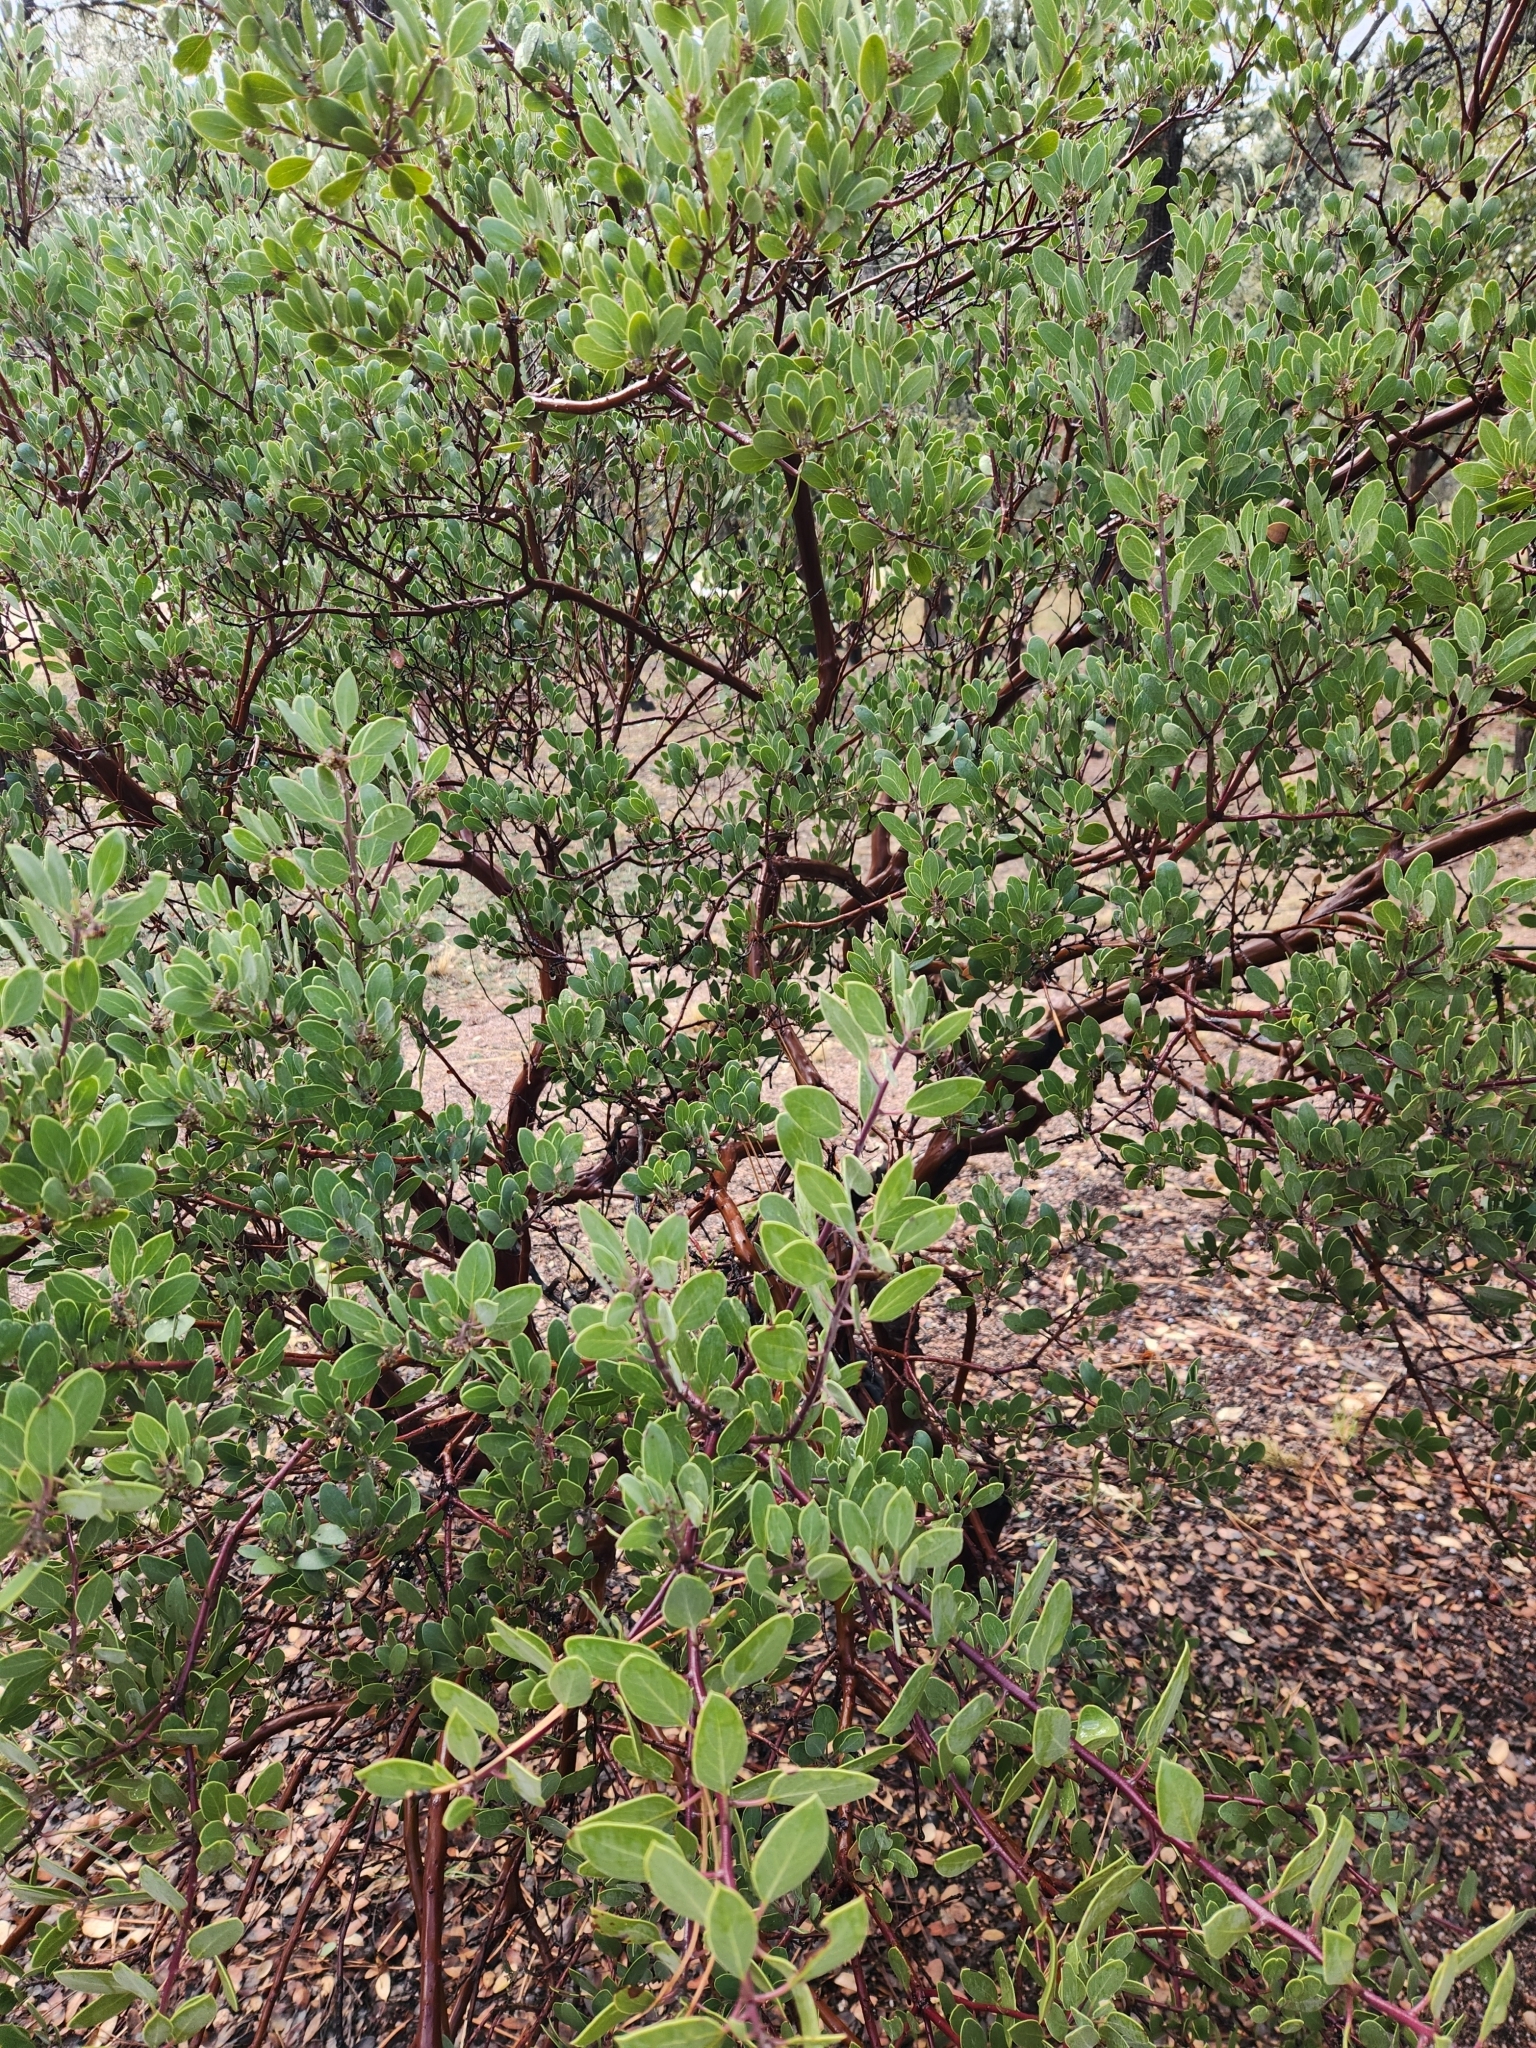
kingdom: Plantae
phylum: Tracheophyta
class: Magnoliopsida
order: Ericales
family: Ericaceae
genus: Arctostaphylos
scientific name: Arctostaphylos pungens
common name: Mexican manzanita
